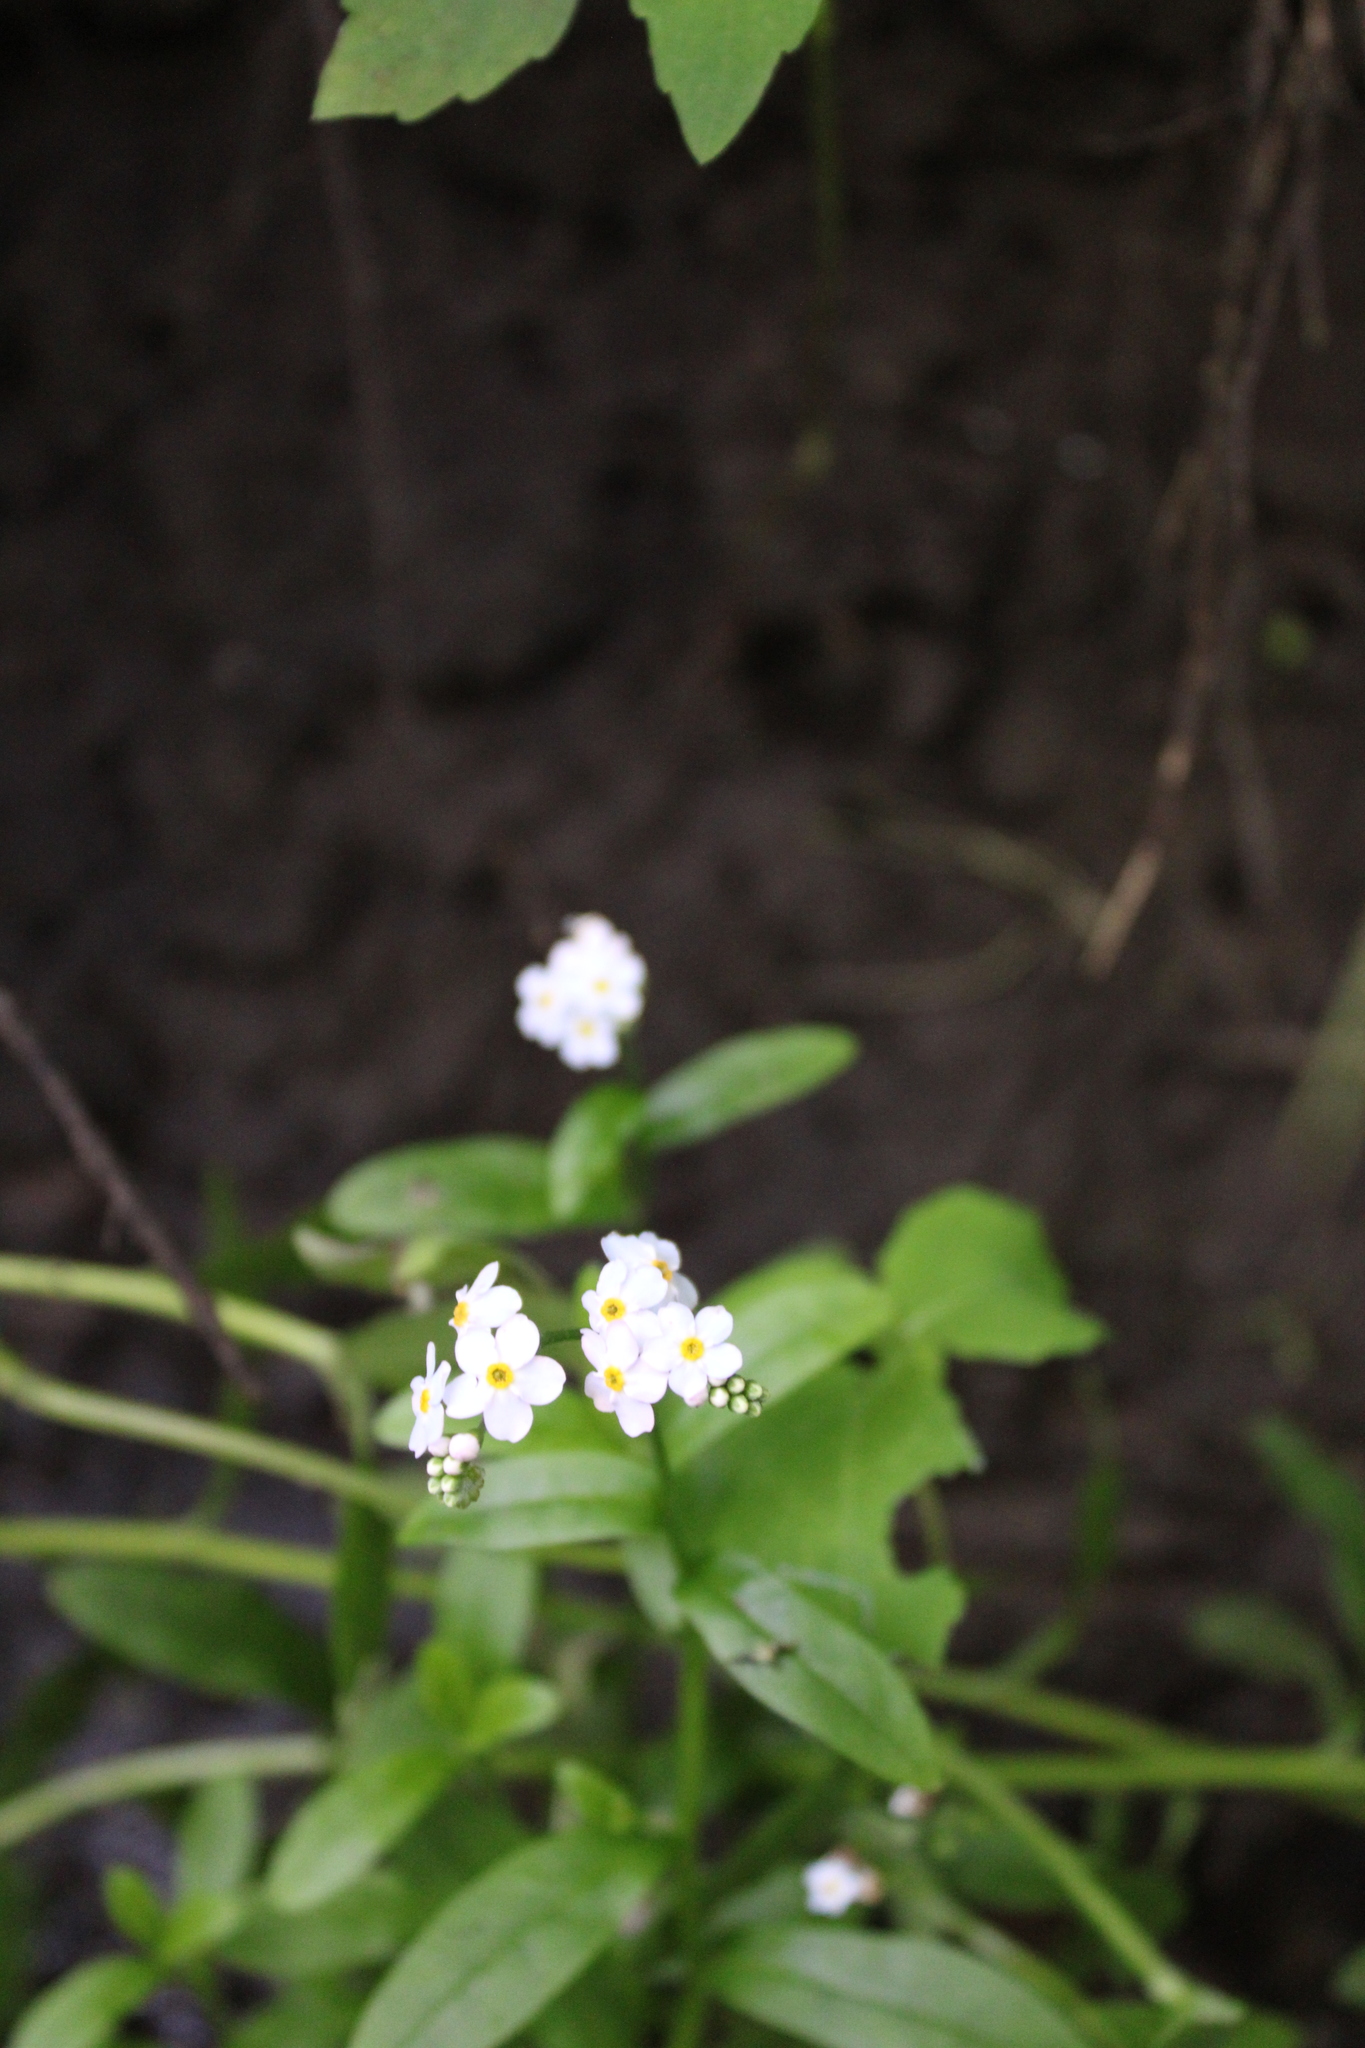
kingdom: Plantae
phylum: Tracheophyta
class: Magnoliopsida
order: Boraginales
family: Boraginaceae
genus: Myosotis
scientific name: Myosotis scorpioides
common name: Water forget-me-not
